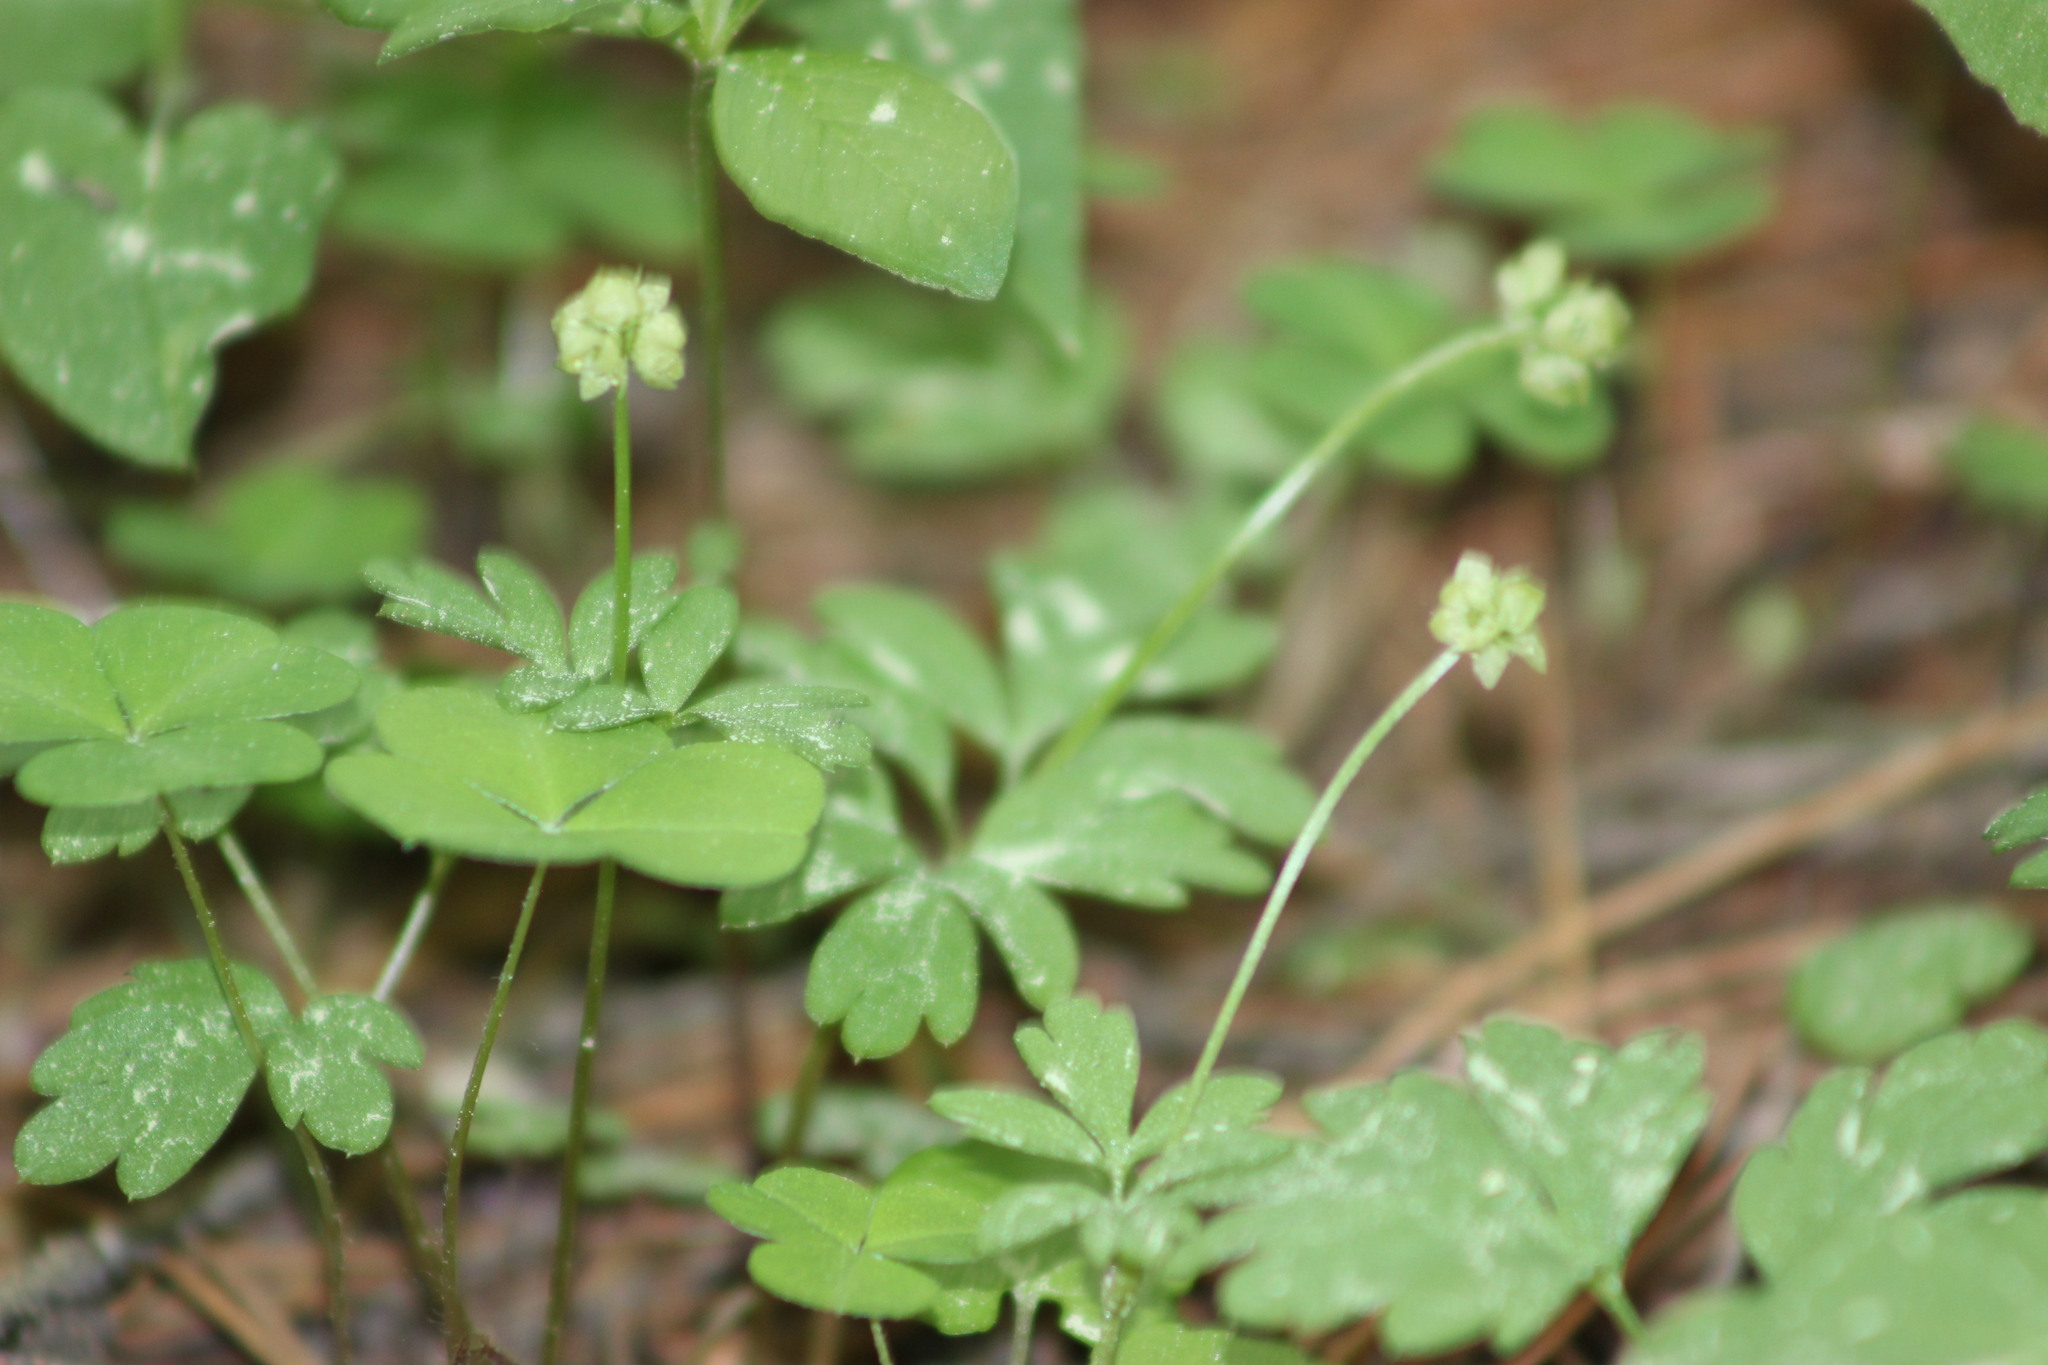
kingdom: Plantae
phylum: Tracheophyta
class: Magnoliopsida
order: Dipsacales
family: Viburnaceae
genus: Adoxa
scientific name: Adoxa moschatellina
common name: Moschatel
